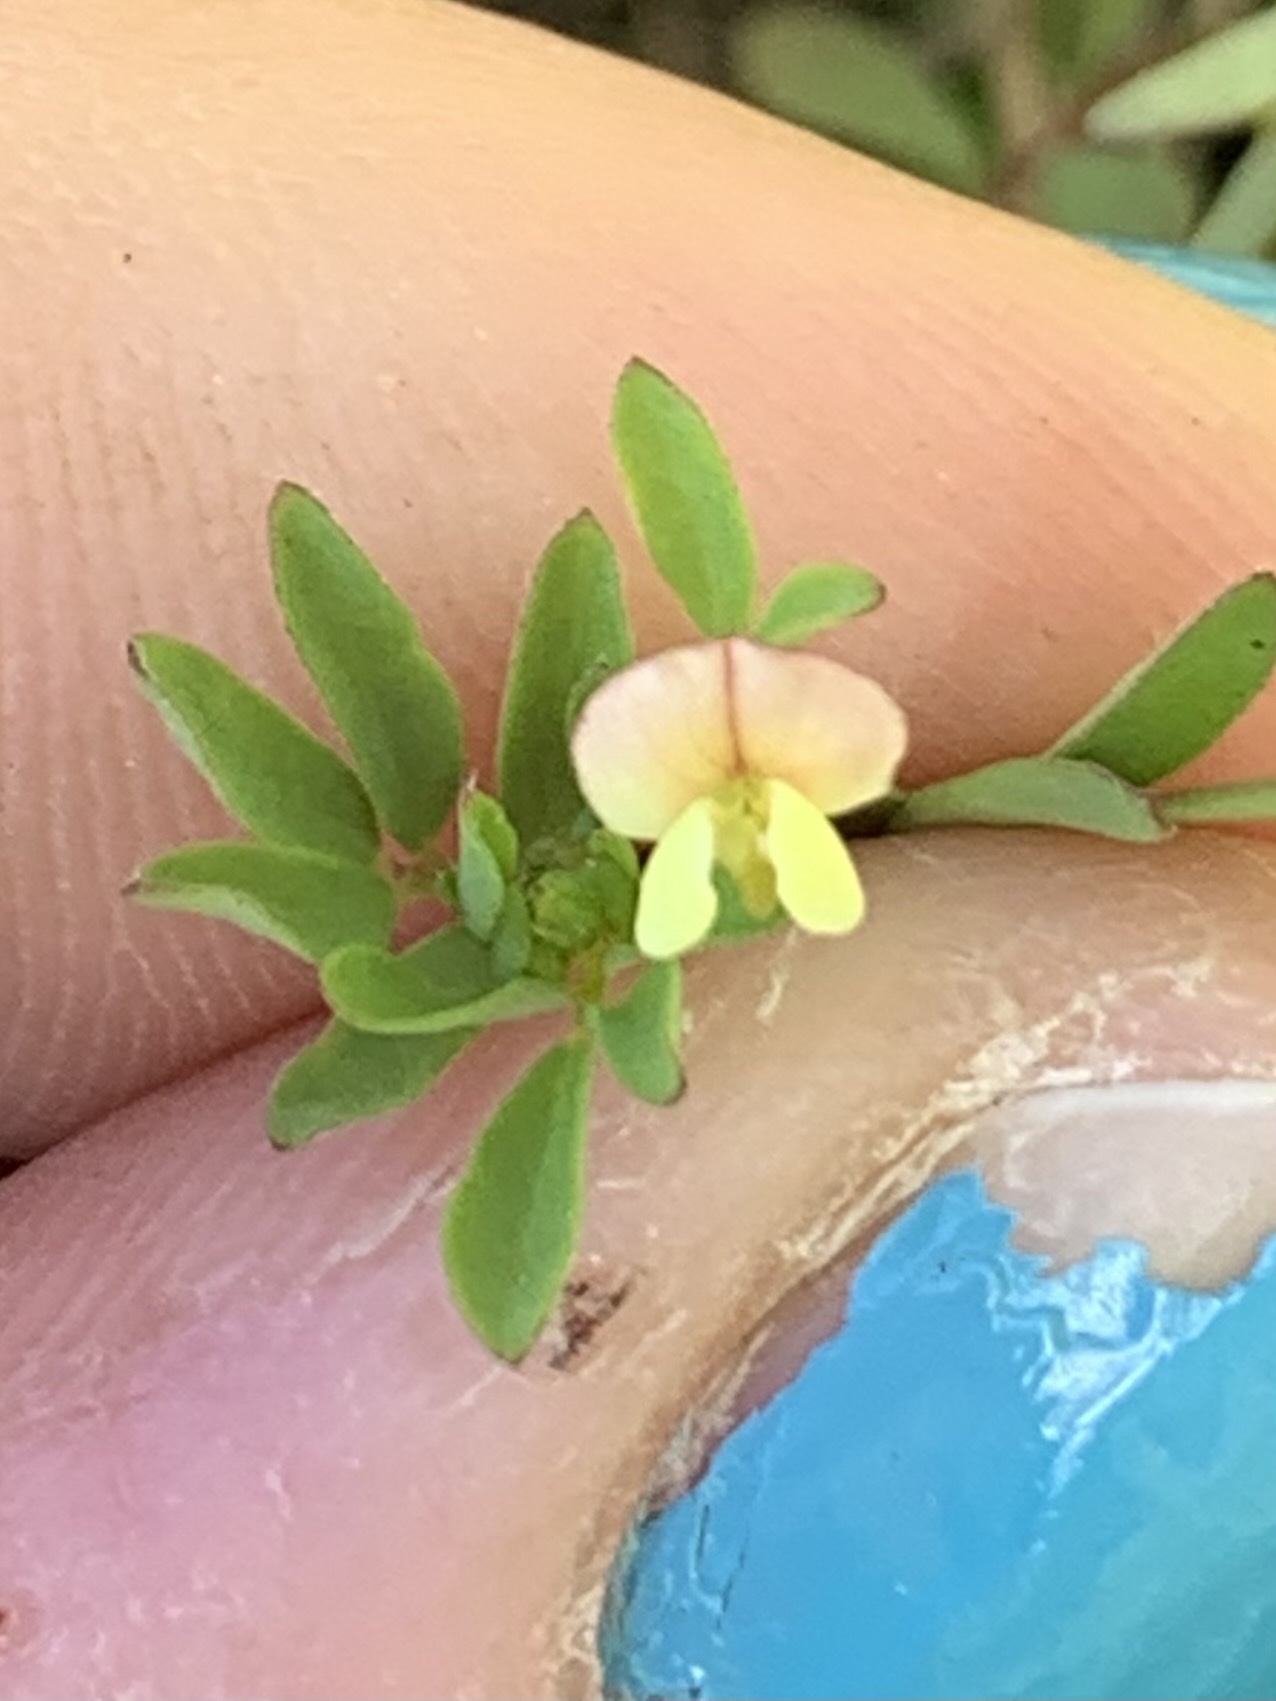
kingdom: Plantae
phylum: Tracheophyta
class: Magnoliopsida
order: Fabales
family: Fabaceae
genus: Acmispon
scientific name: Acmispon parviflorus
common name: Desert deer-vetch
